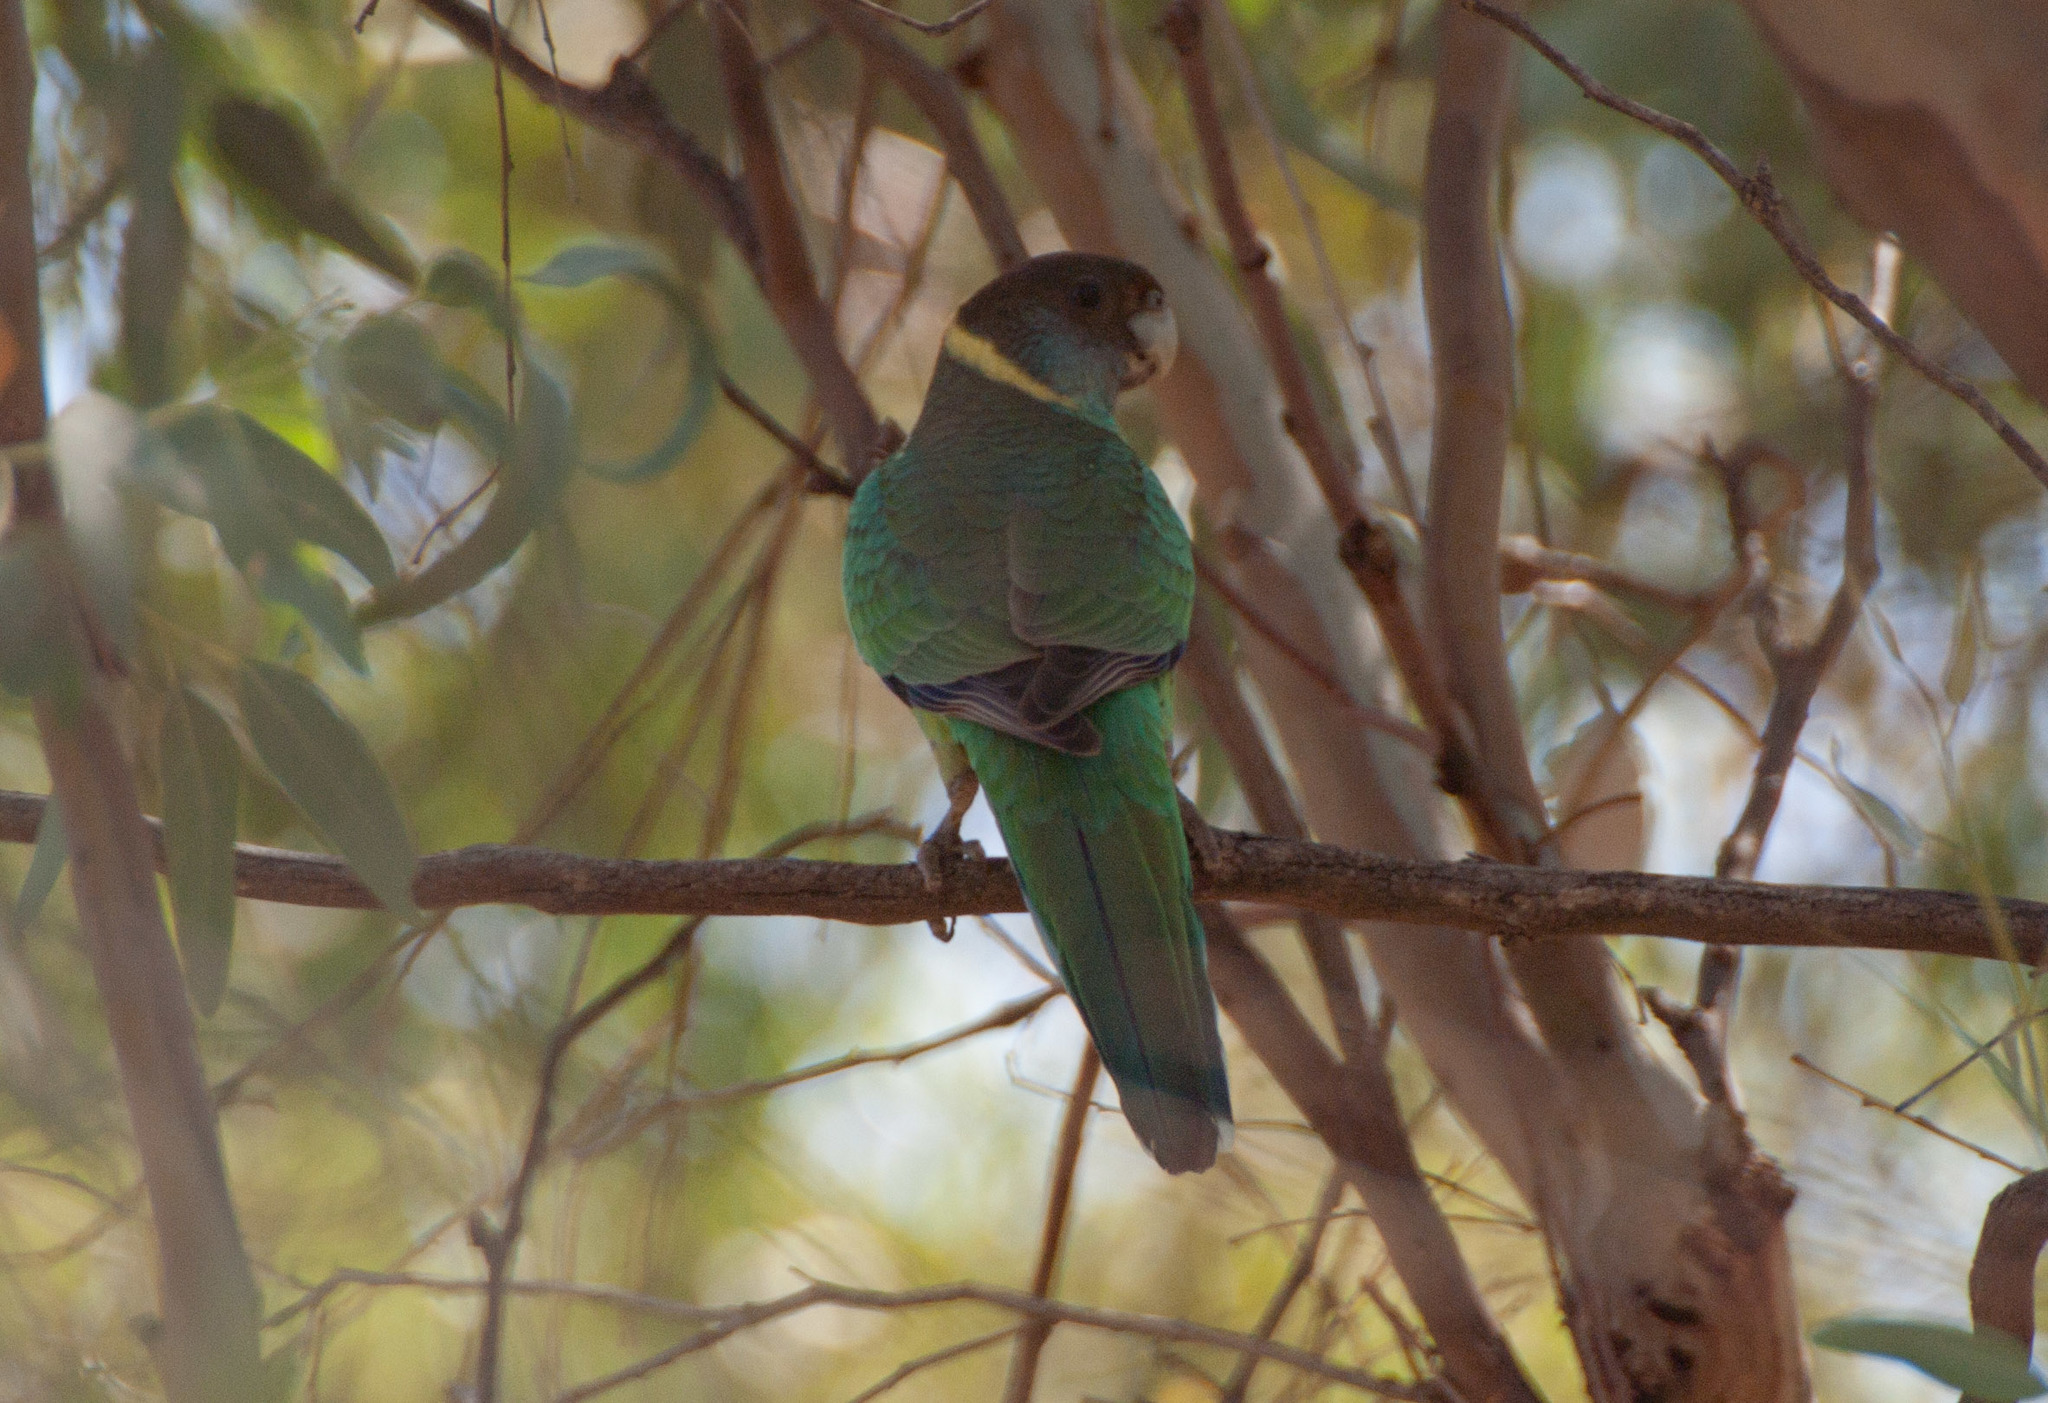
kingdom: Animalia
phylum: Chordata
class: Aves
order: Psittaciformes
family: Psittacidae
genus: Barnardius
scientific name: Barnardius zonarius
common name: Australian ringneck
